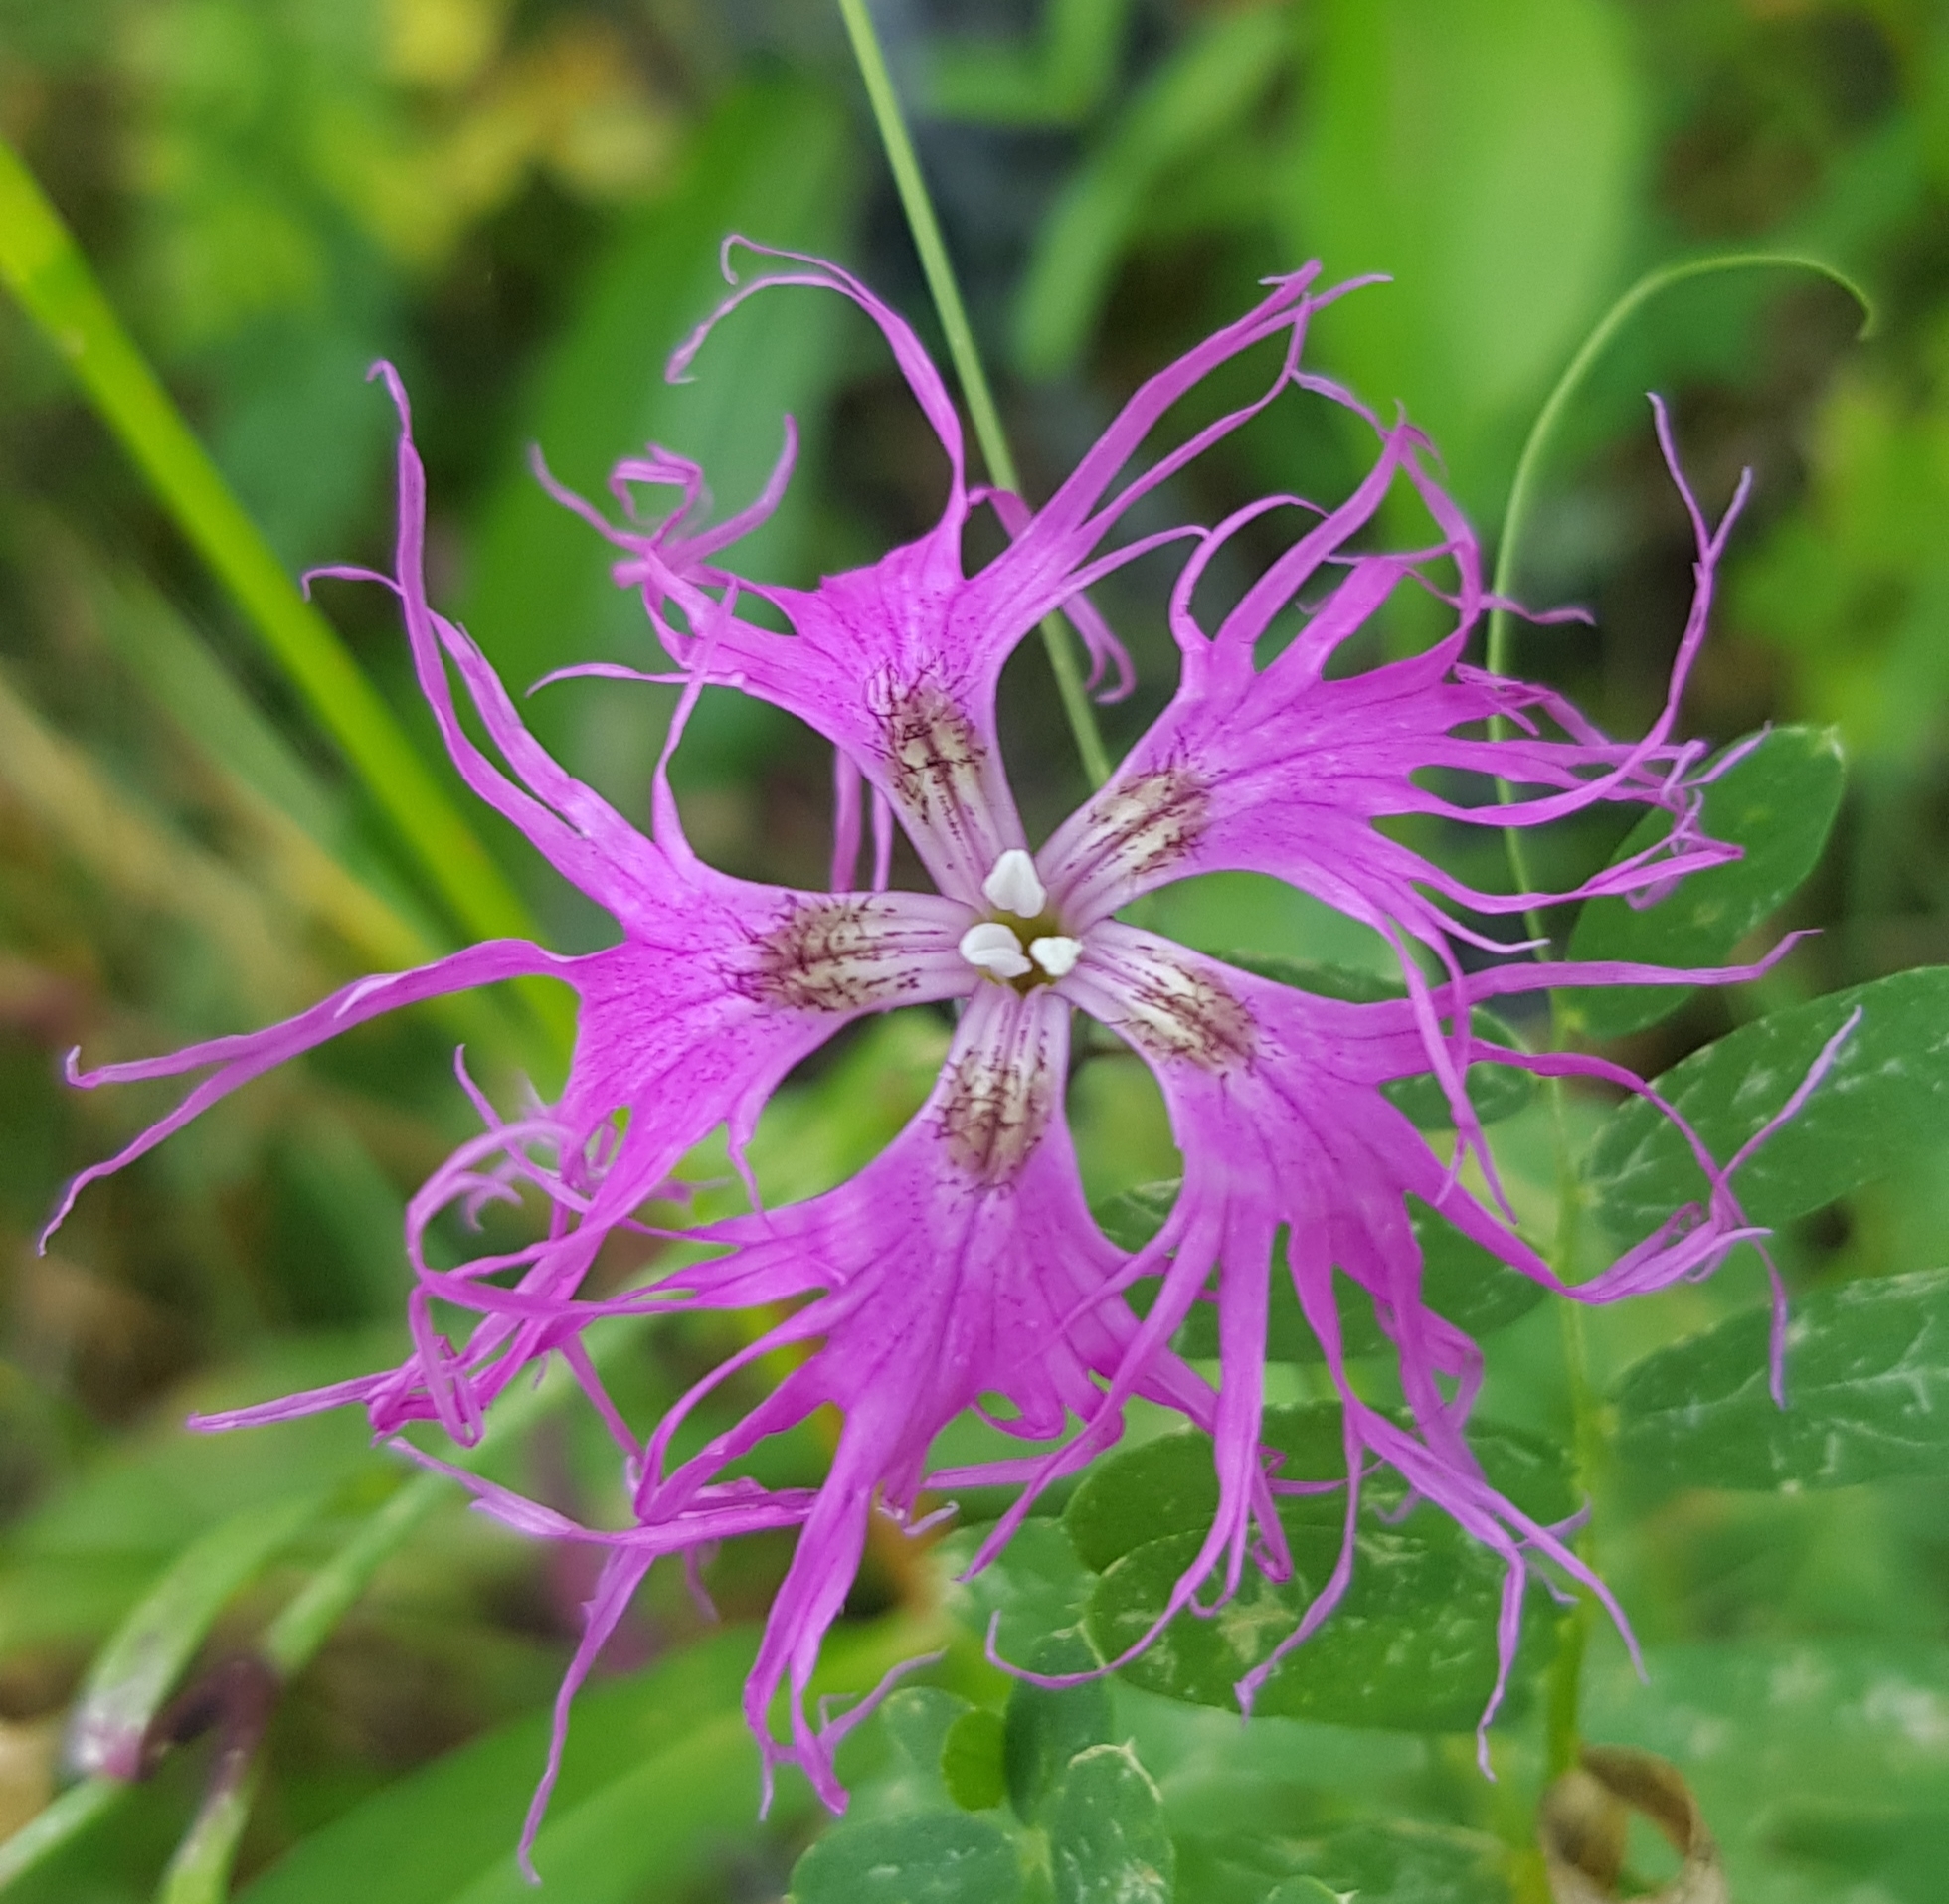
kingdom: Plantae
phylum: Tracheophyta
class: Magnoliopsida
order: Caryophyllales
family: Caryophyllaceae
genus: Dianthus
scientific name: Dianthus superbus
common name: Fringed pink
